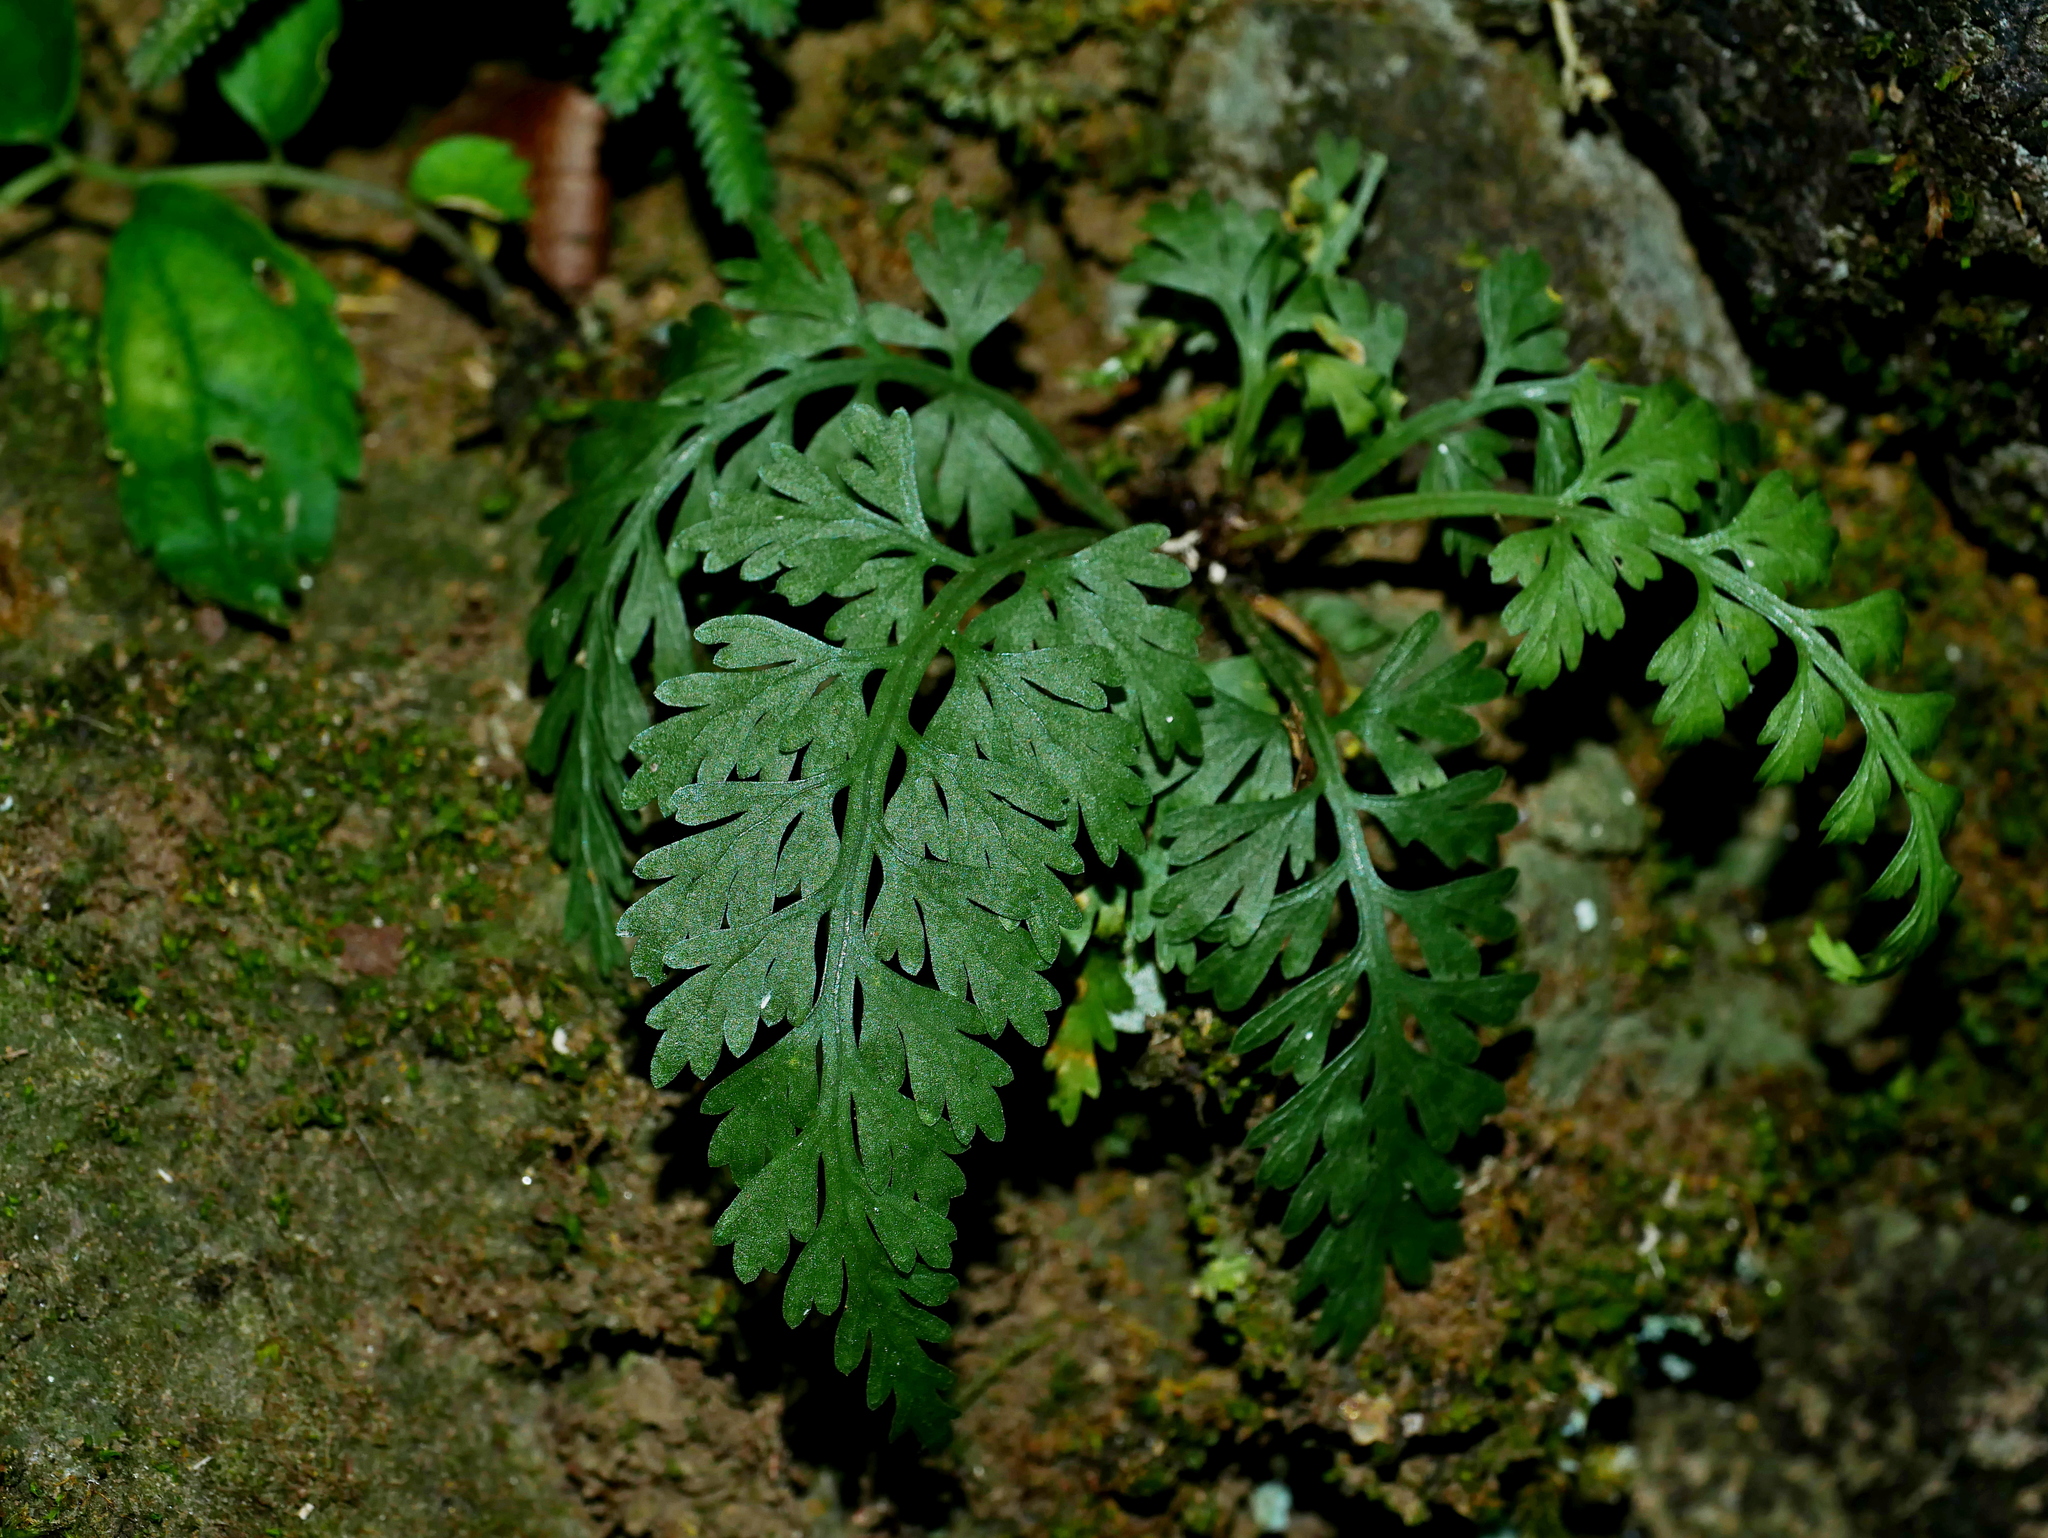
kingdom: Plantae
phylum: Tracheophyta
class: Polypodiopsida
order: Polypodiales
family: Aspleniaceae
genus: Asplenium
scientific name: Asplenium ritoense
